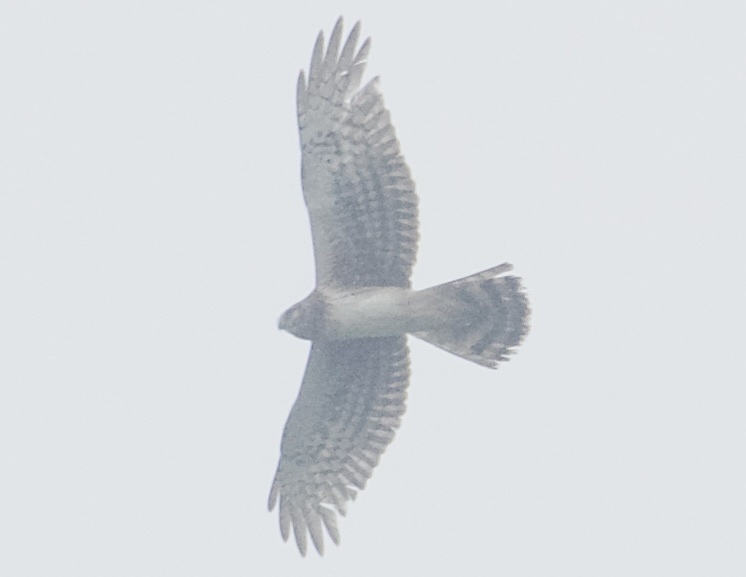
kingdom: Animalia
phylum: Chordata
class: Aves
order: Accipitriformes
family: Accipitridae
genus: Circus
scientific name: Circus cyaneus
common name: Hen harrier
